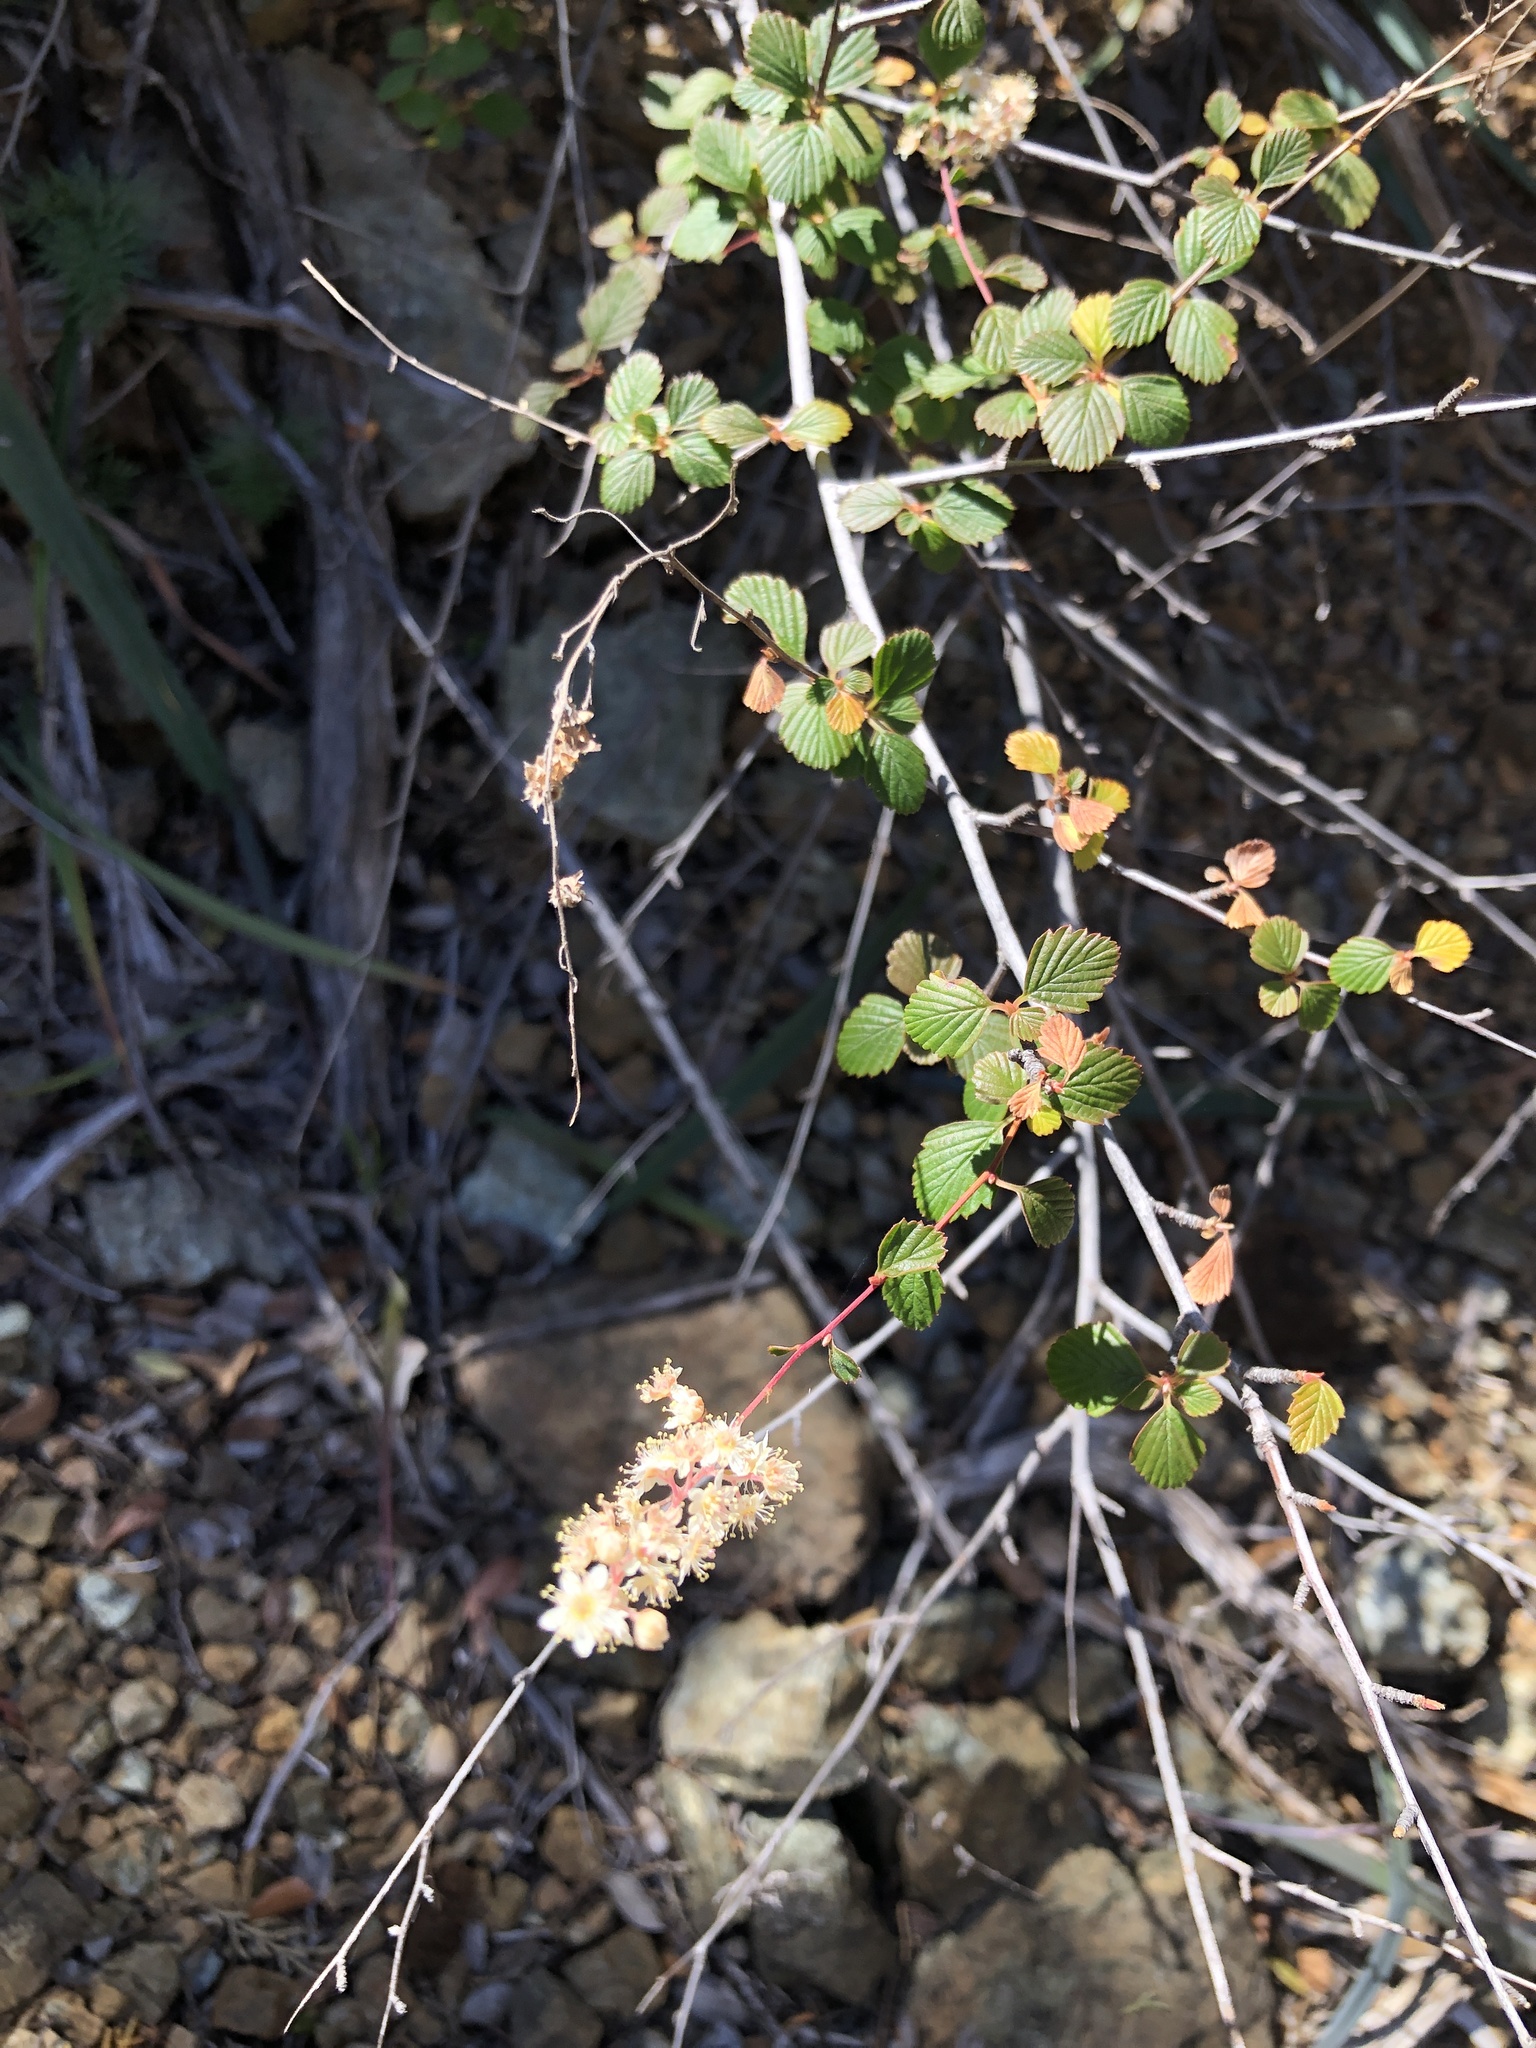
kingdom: Plantae
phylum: Tracheophyta
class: Magnoliopsida
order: Rosales
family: Rosaceae
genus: Holodiscus
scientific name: Holodiscus discolor
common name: Oceanspray
